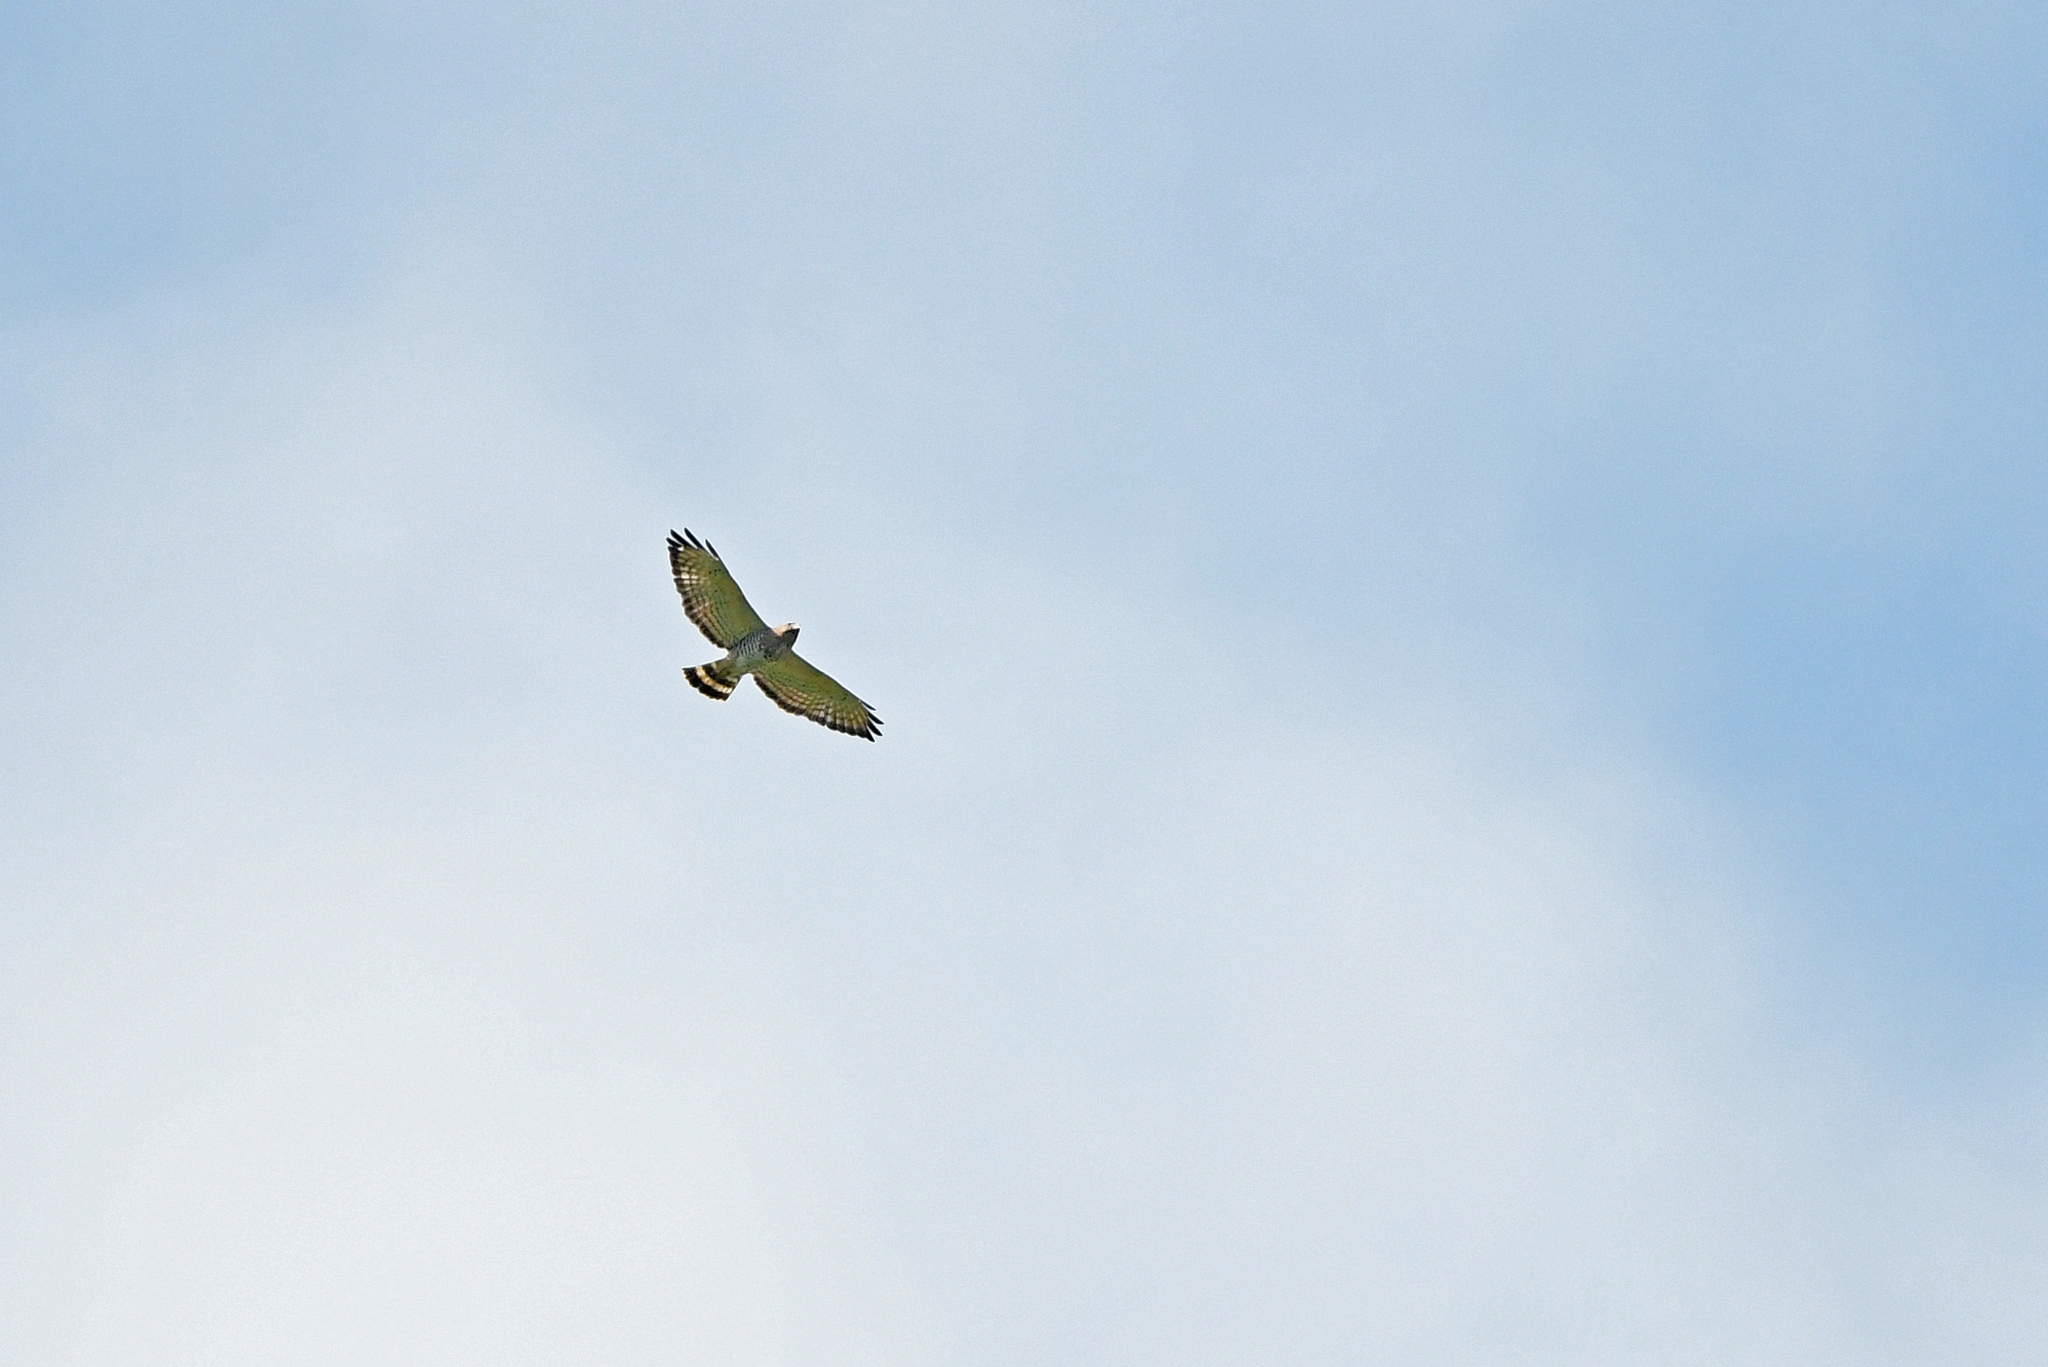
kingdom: Animalia
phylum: Chordata
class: Aves
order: Accipitriformes
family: Accipitridae
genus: Buteo
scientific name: Buteo platypterus
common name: Broad-winged hawk
